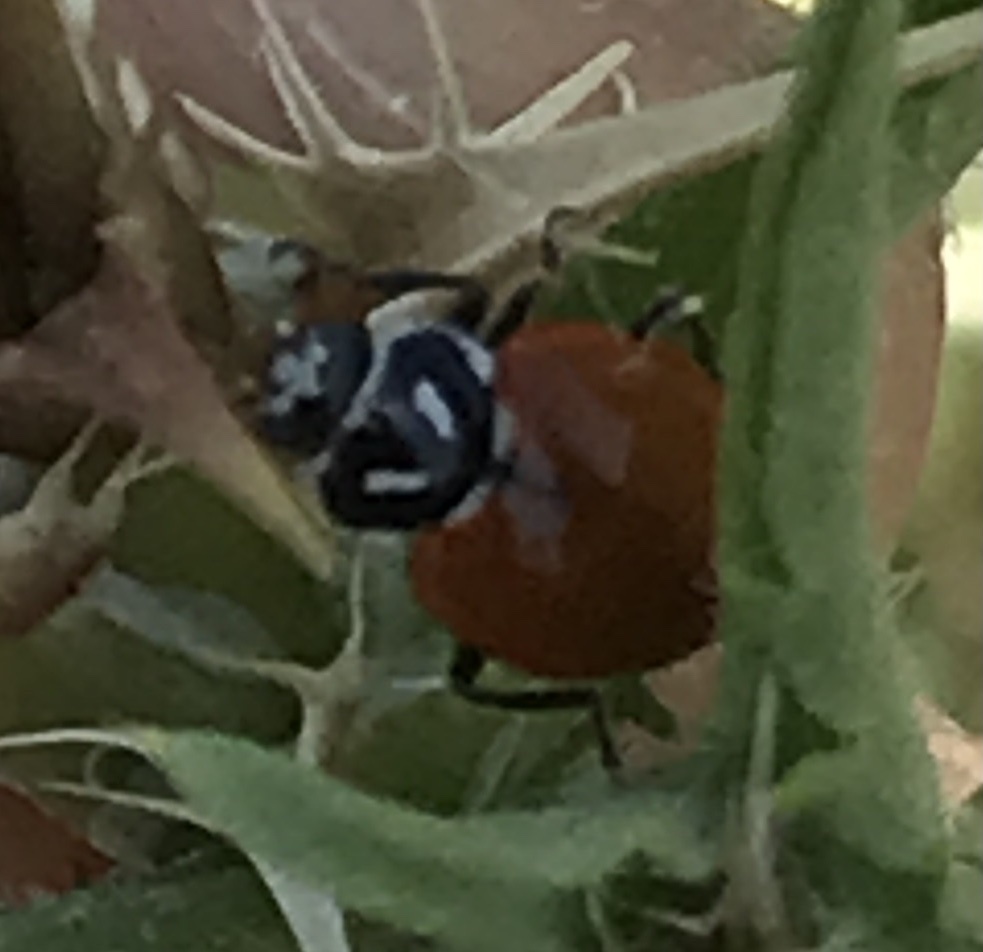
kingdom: Animalia
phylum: Arthropoda
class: Insecta
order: Coleoptera
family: Coccinellidae
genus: Hippodamia
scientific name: Hippodamia convergens
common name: Convergent lady beetle
